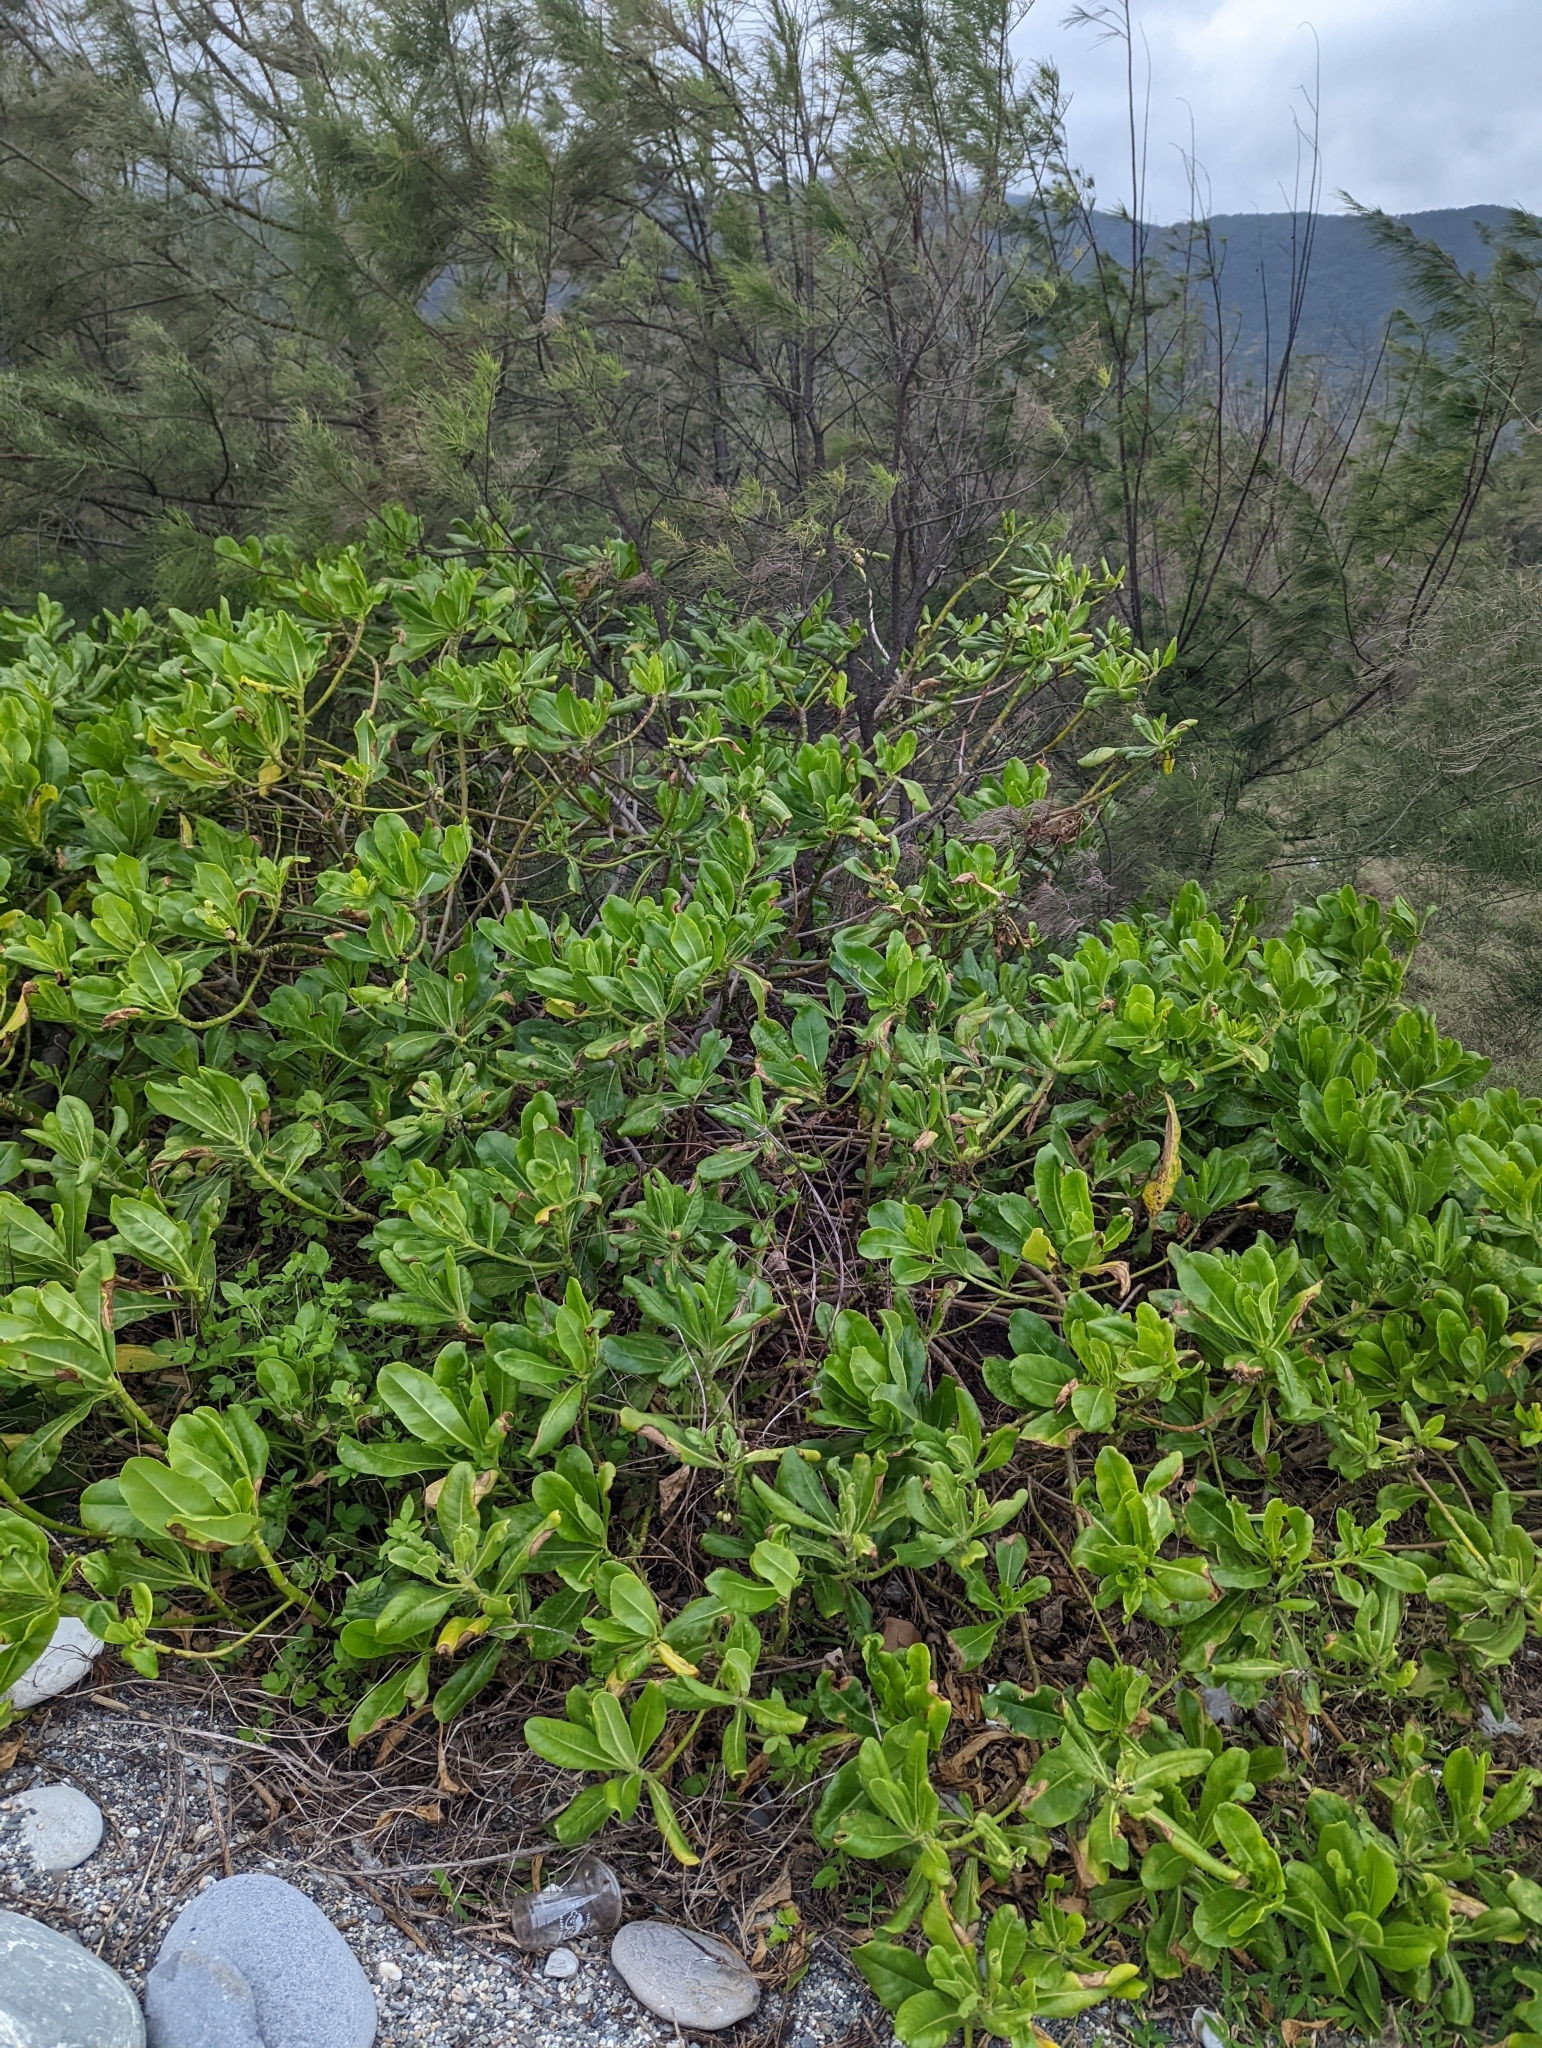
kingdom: Plantae
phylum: Tracheophyta
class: Magnoliopsida
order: Asterales
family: Goodeniaceae
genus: Scaevola
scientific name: Scaevola taccada
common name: Sea lettucetree
